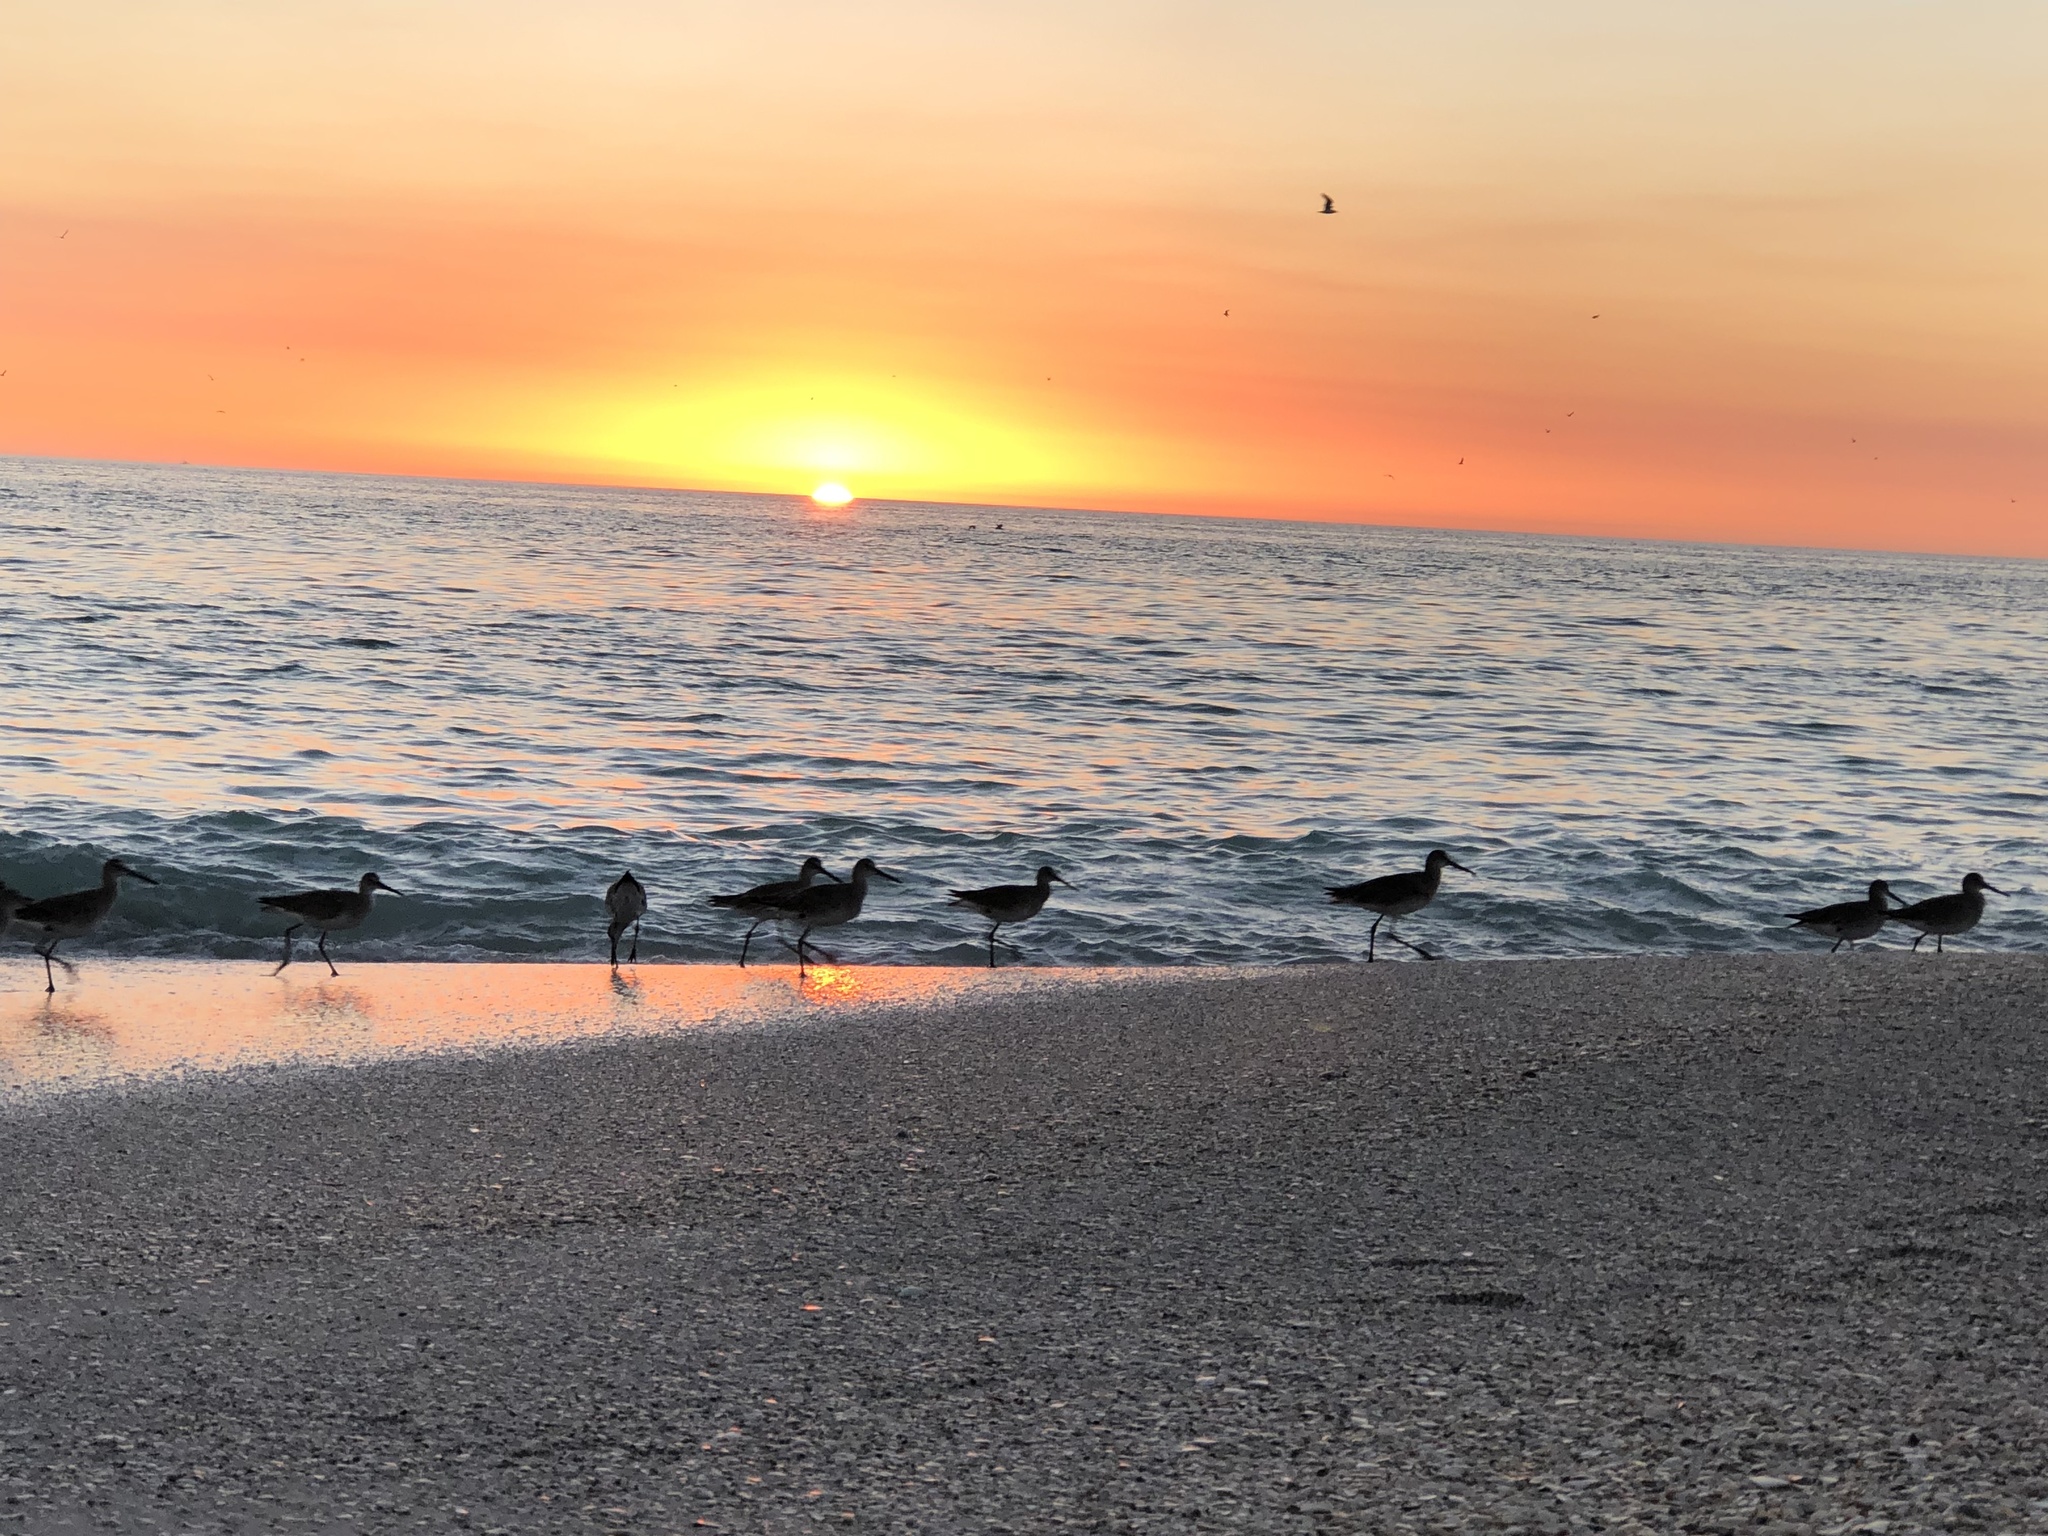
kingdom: Animalia
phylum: Chordata
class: Aves
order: Charadriiformes
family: Scolopacidae
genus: Tringa
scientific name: Tringa semipalmata
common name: Willet
